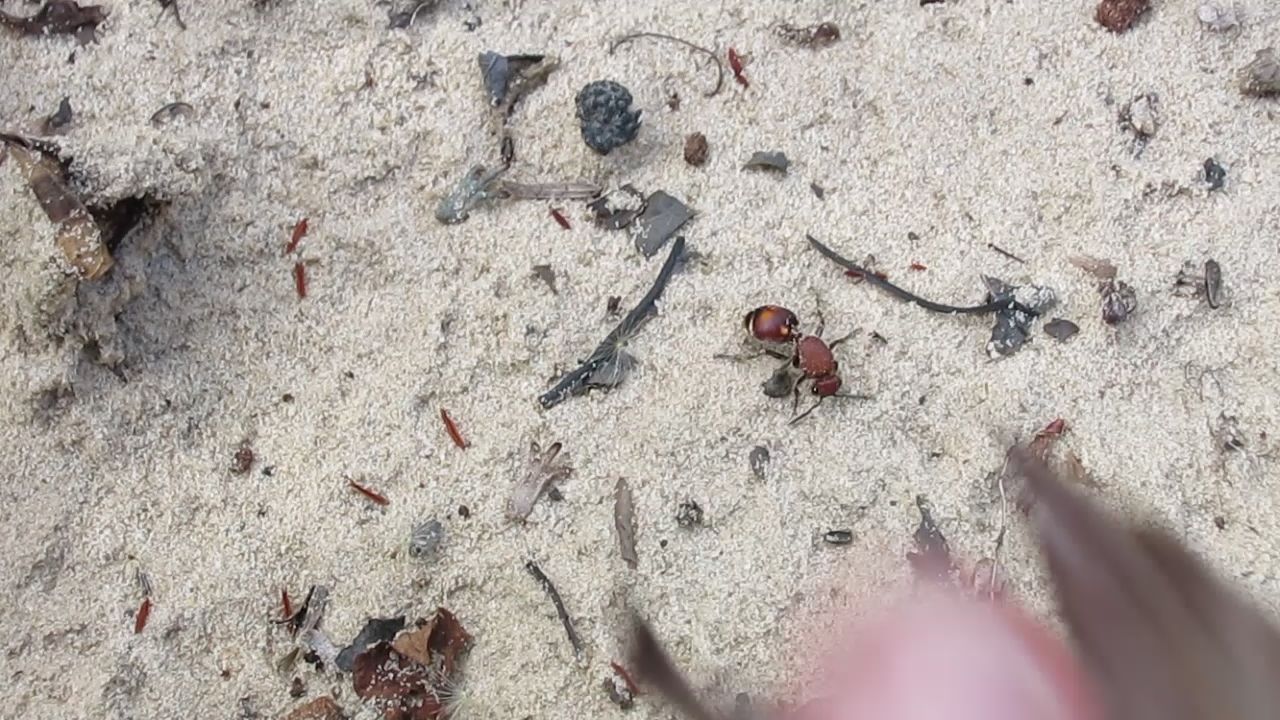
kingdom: Animalia
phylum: Arthropoda
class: Insecta
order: Hymenoptera
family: Mutillidae
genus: Dasymutilla
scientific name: Dasymutilla
